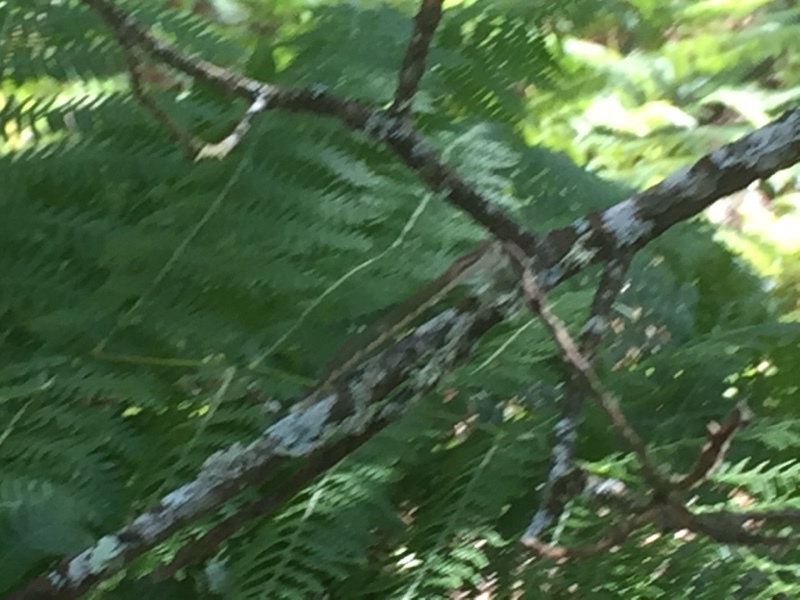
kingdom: Animalia
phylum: Arthropoda
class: Insecta
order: Odonata
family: Lestidae
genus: Sympecma
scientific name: Sympecma fusca
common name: Common winter damsel
